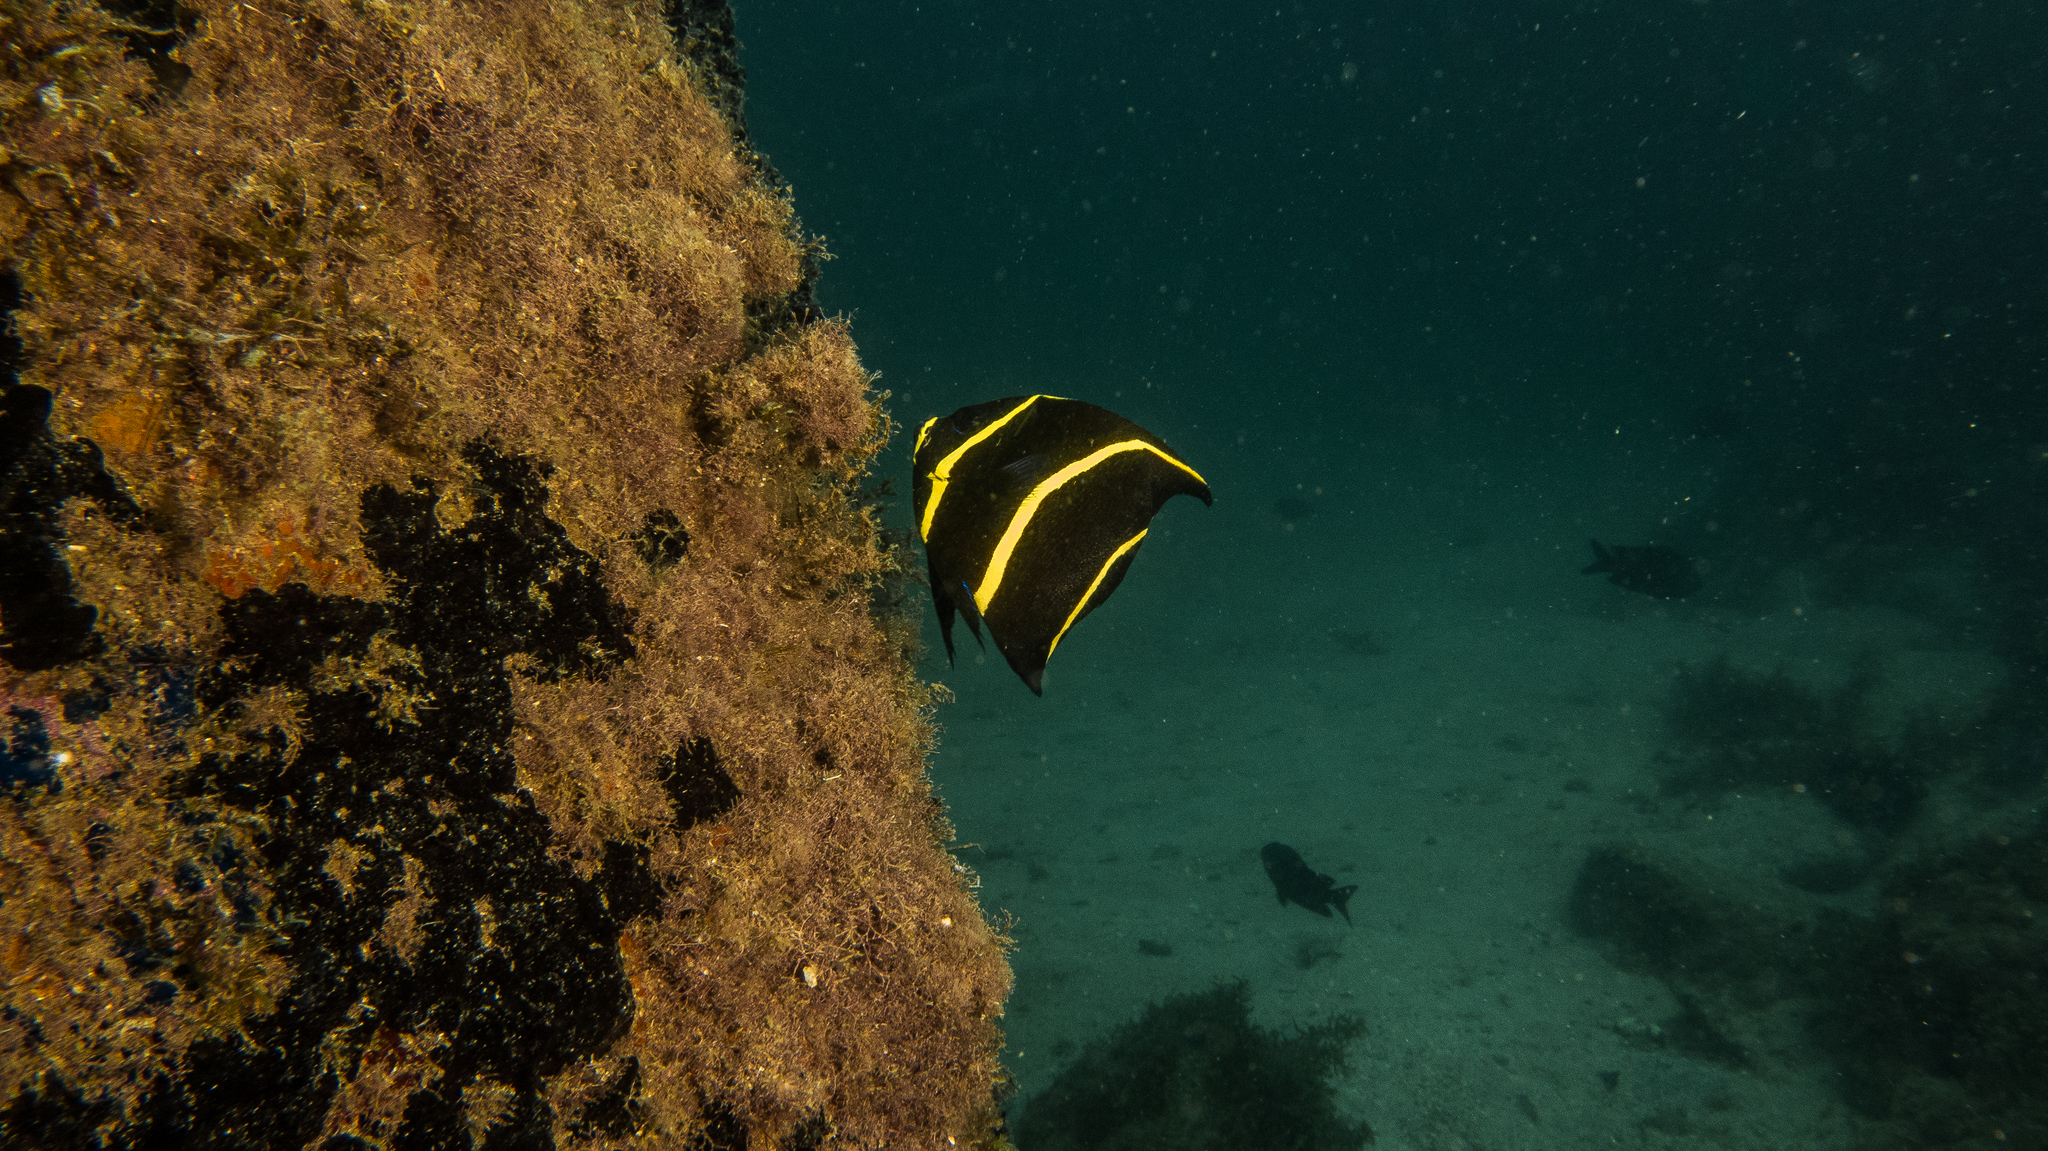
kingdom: Animalia
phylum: Chordata
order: Perciformes
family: Pomacanthidae
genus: Pomacanthus
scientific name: Pomacanthus paru
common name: French angelfish
